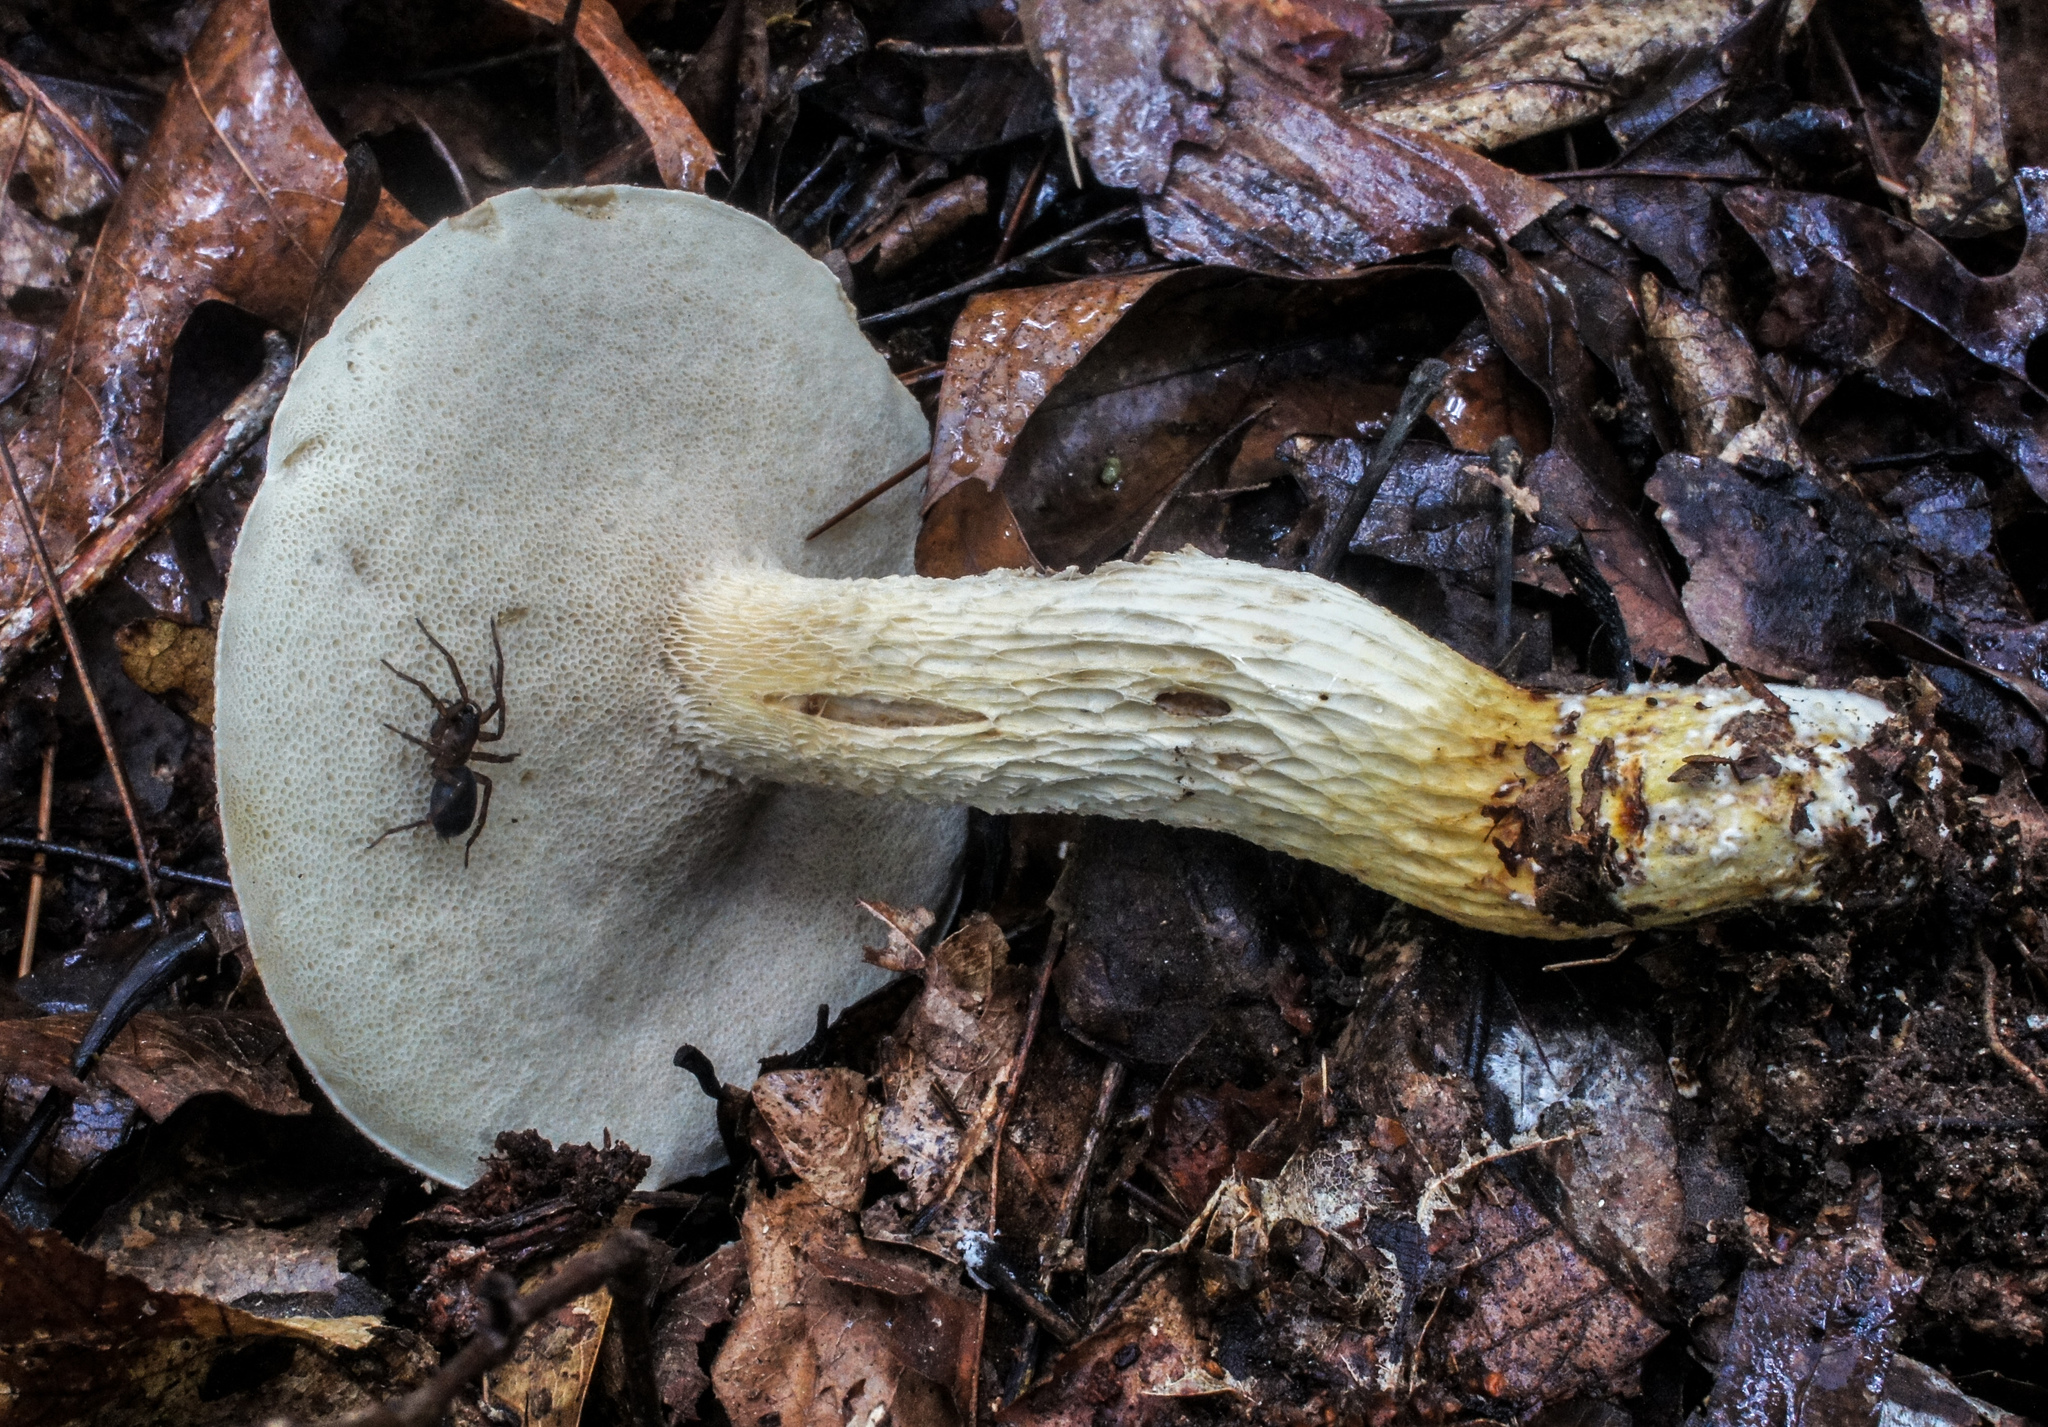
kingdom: Fungi
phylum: Basidiomycota
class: Agaricomycetes
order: Boletales
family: Boletaceae
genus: Retiboletus
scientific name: Retiboletus griseus
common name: Grey bolete
